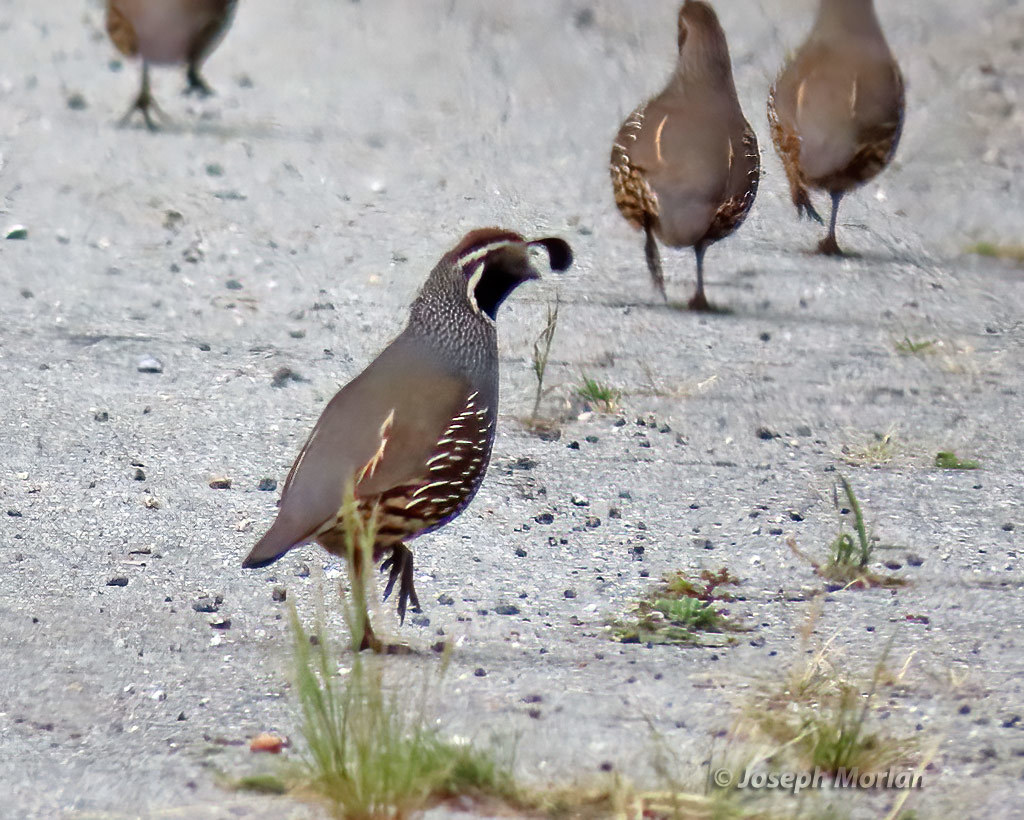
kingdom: Animalia
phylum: Chordata
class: Aves
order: Galliformes
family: Odontophoridae
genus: Callipepla
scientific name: Callipepla californica
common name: California quail
